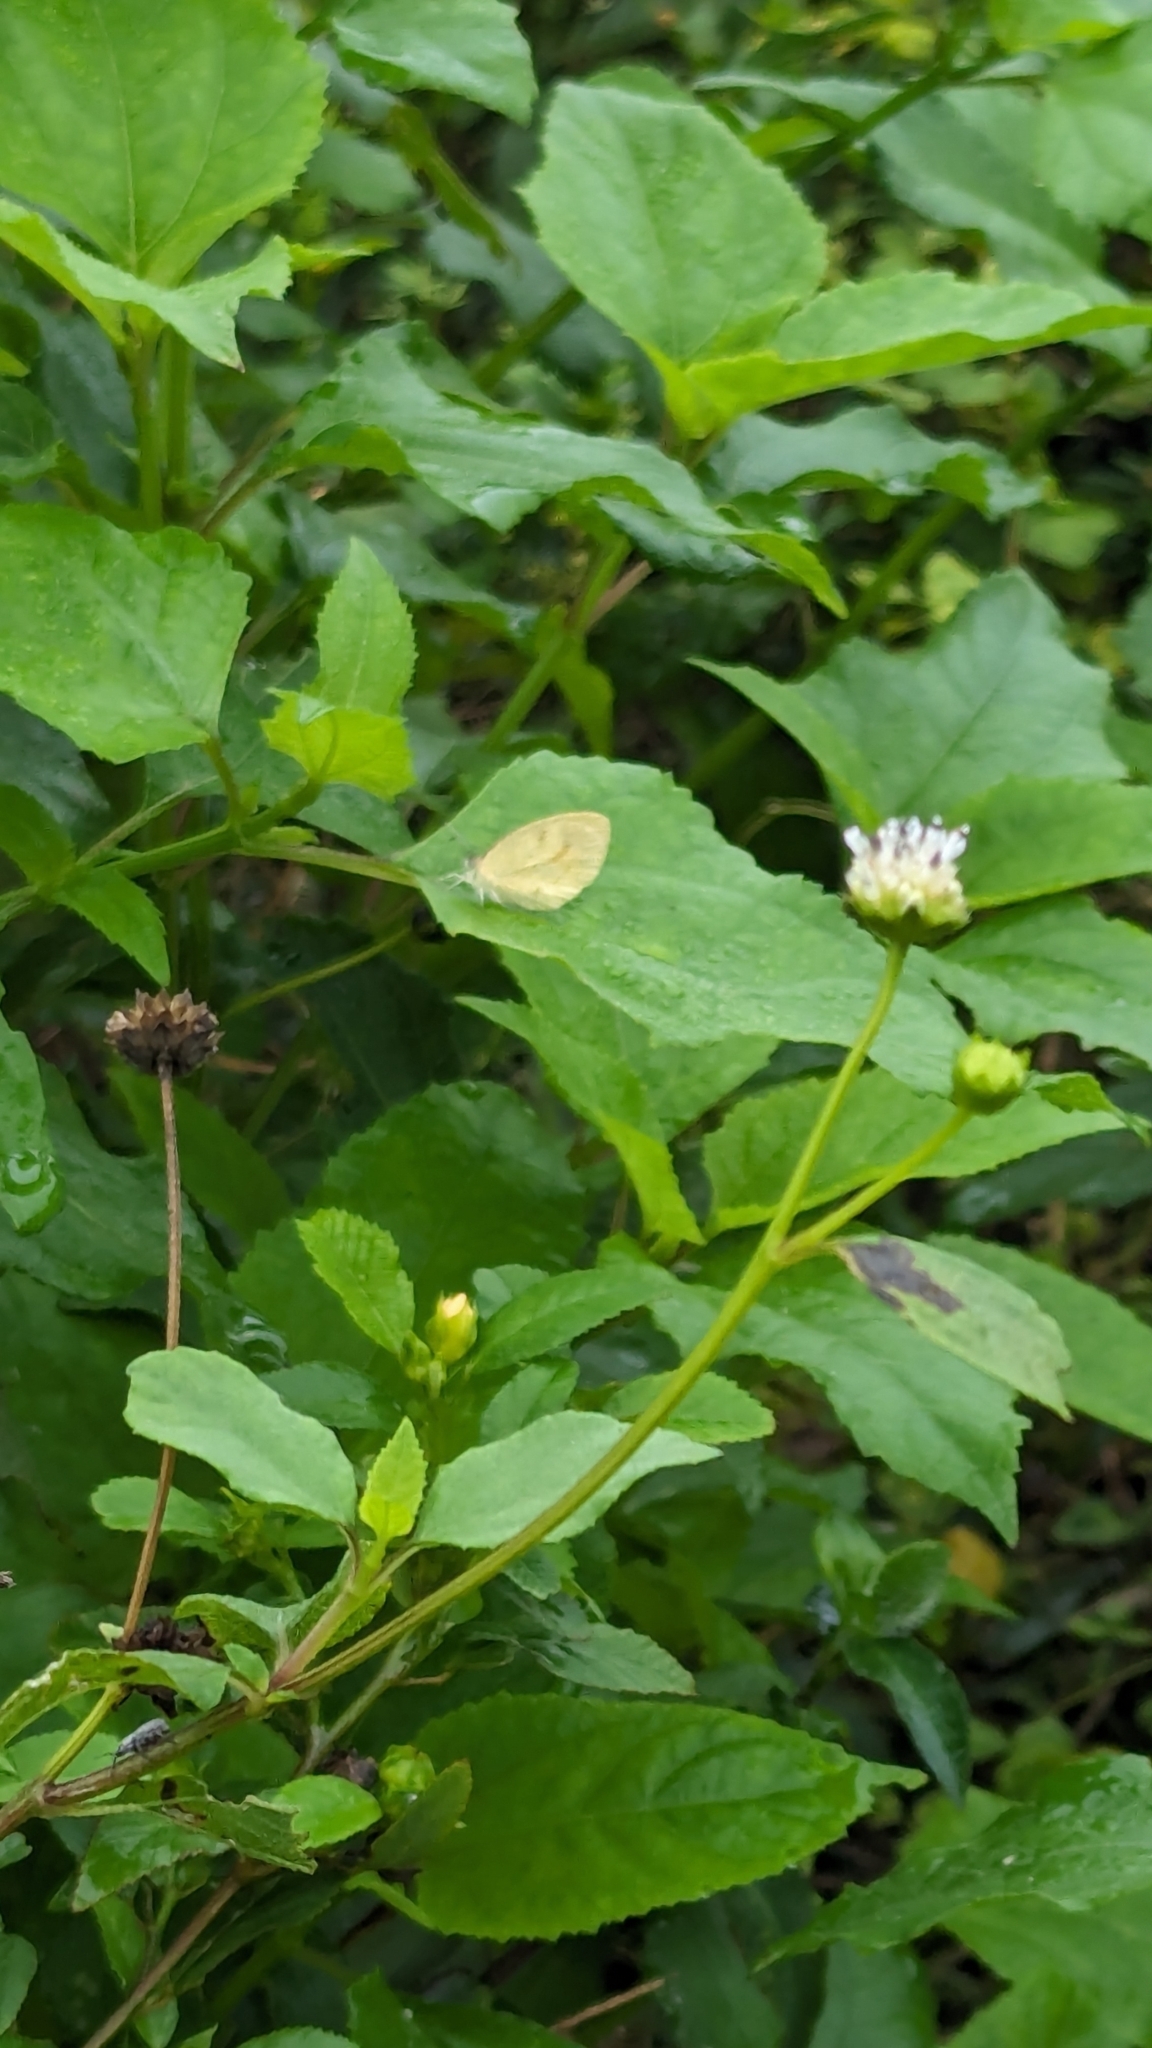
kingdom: Animalia
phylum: Arthropoda
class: Insecta
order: Lepidoptera
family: Pieridae
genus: Eurema
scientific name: Eurema daira
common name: Barred sulphur
